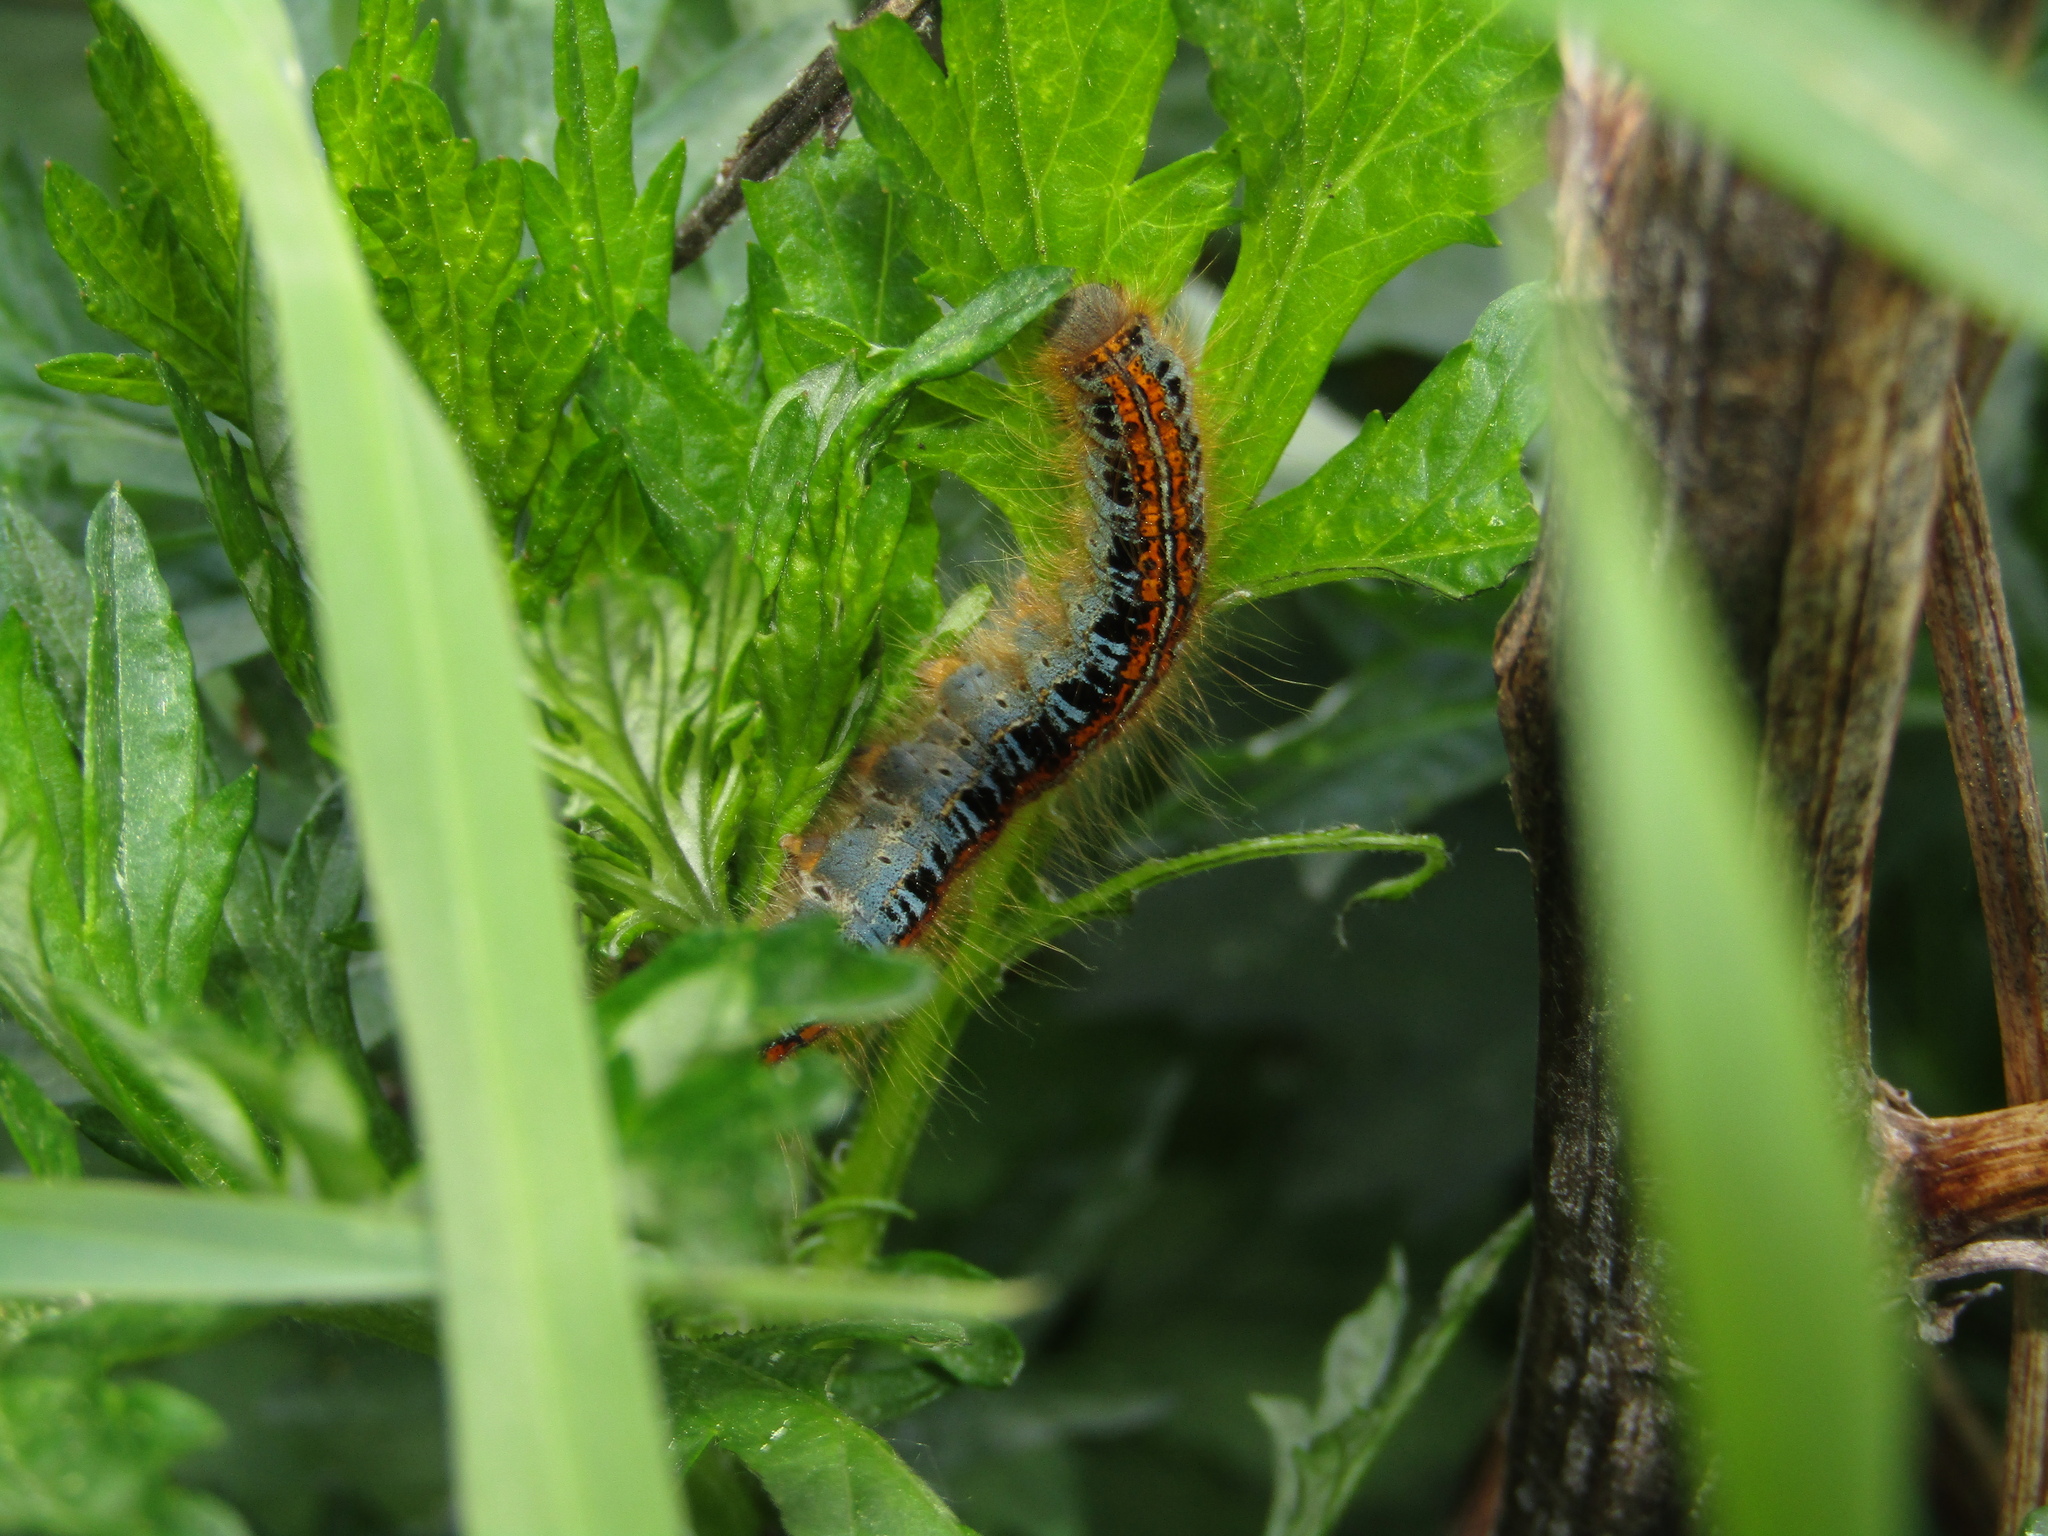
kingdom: Animalia
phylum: Arthropoda
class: Insecta
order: Lepidoptera
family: Lasiocampidae
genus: Malacosoma
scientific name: Malacosoma castrense
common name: Ground lackey
